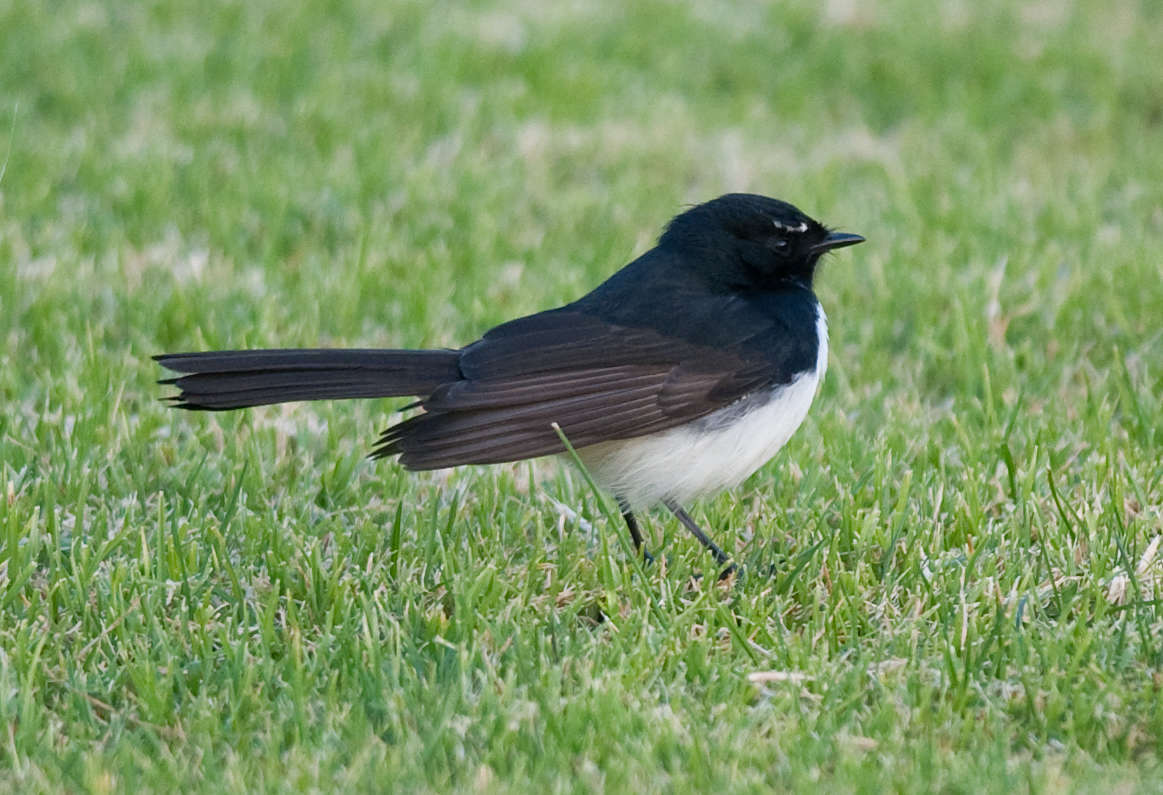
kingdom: Animalia
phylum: Chordata
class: Aves
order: Passeriformes
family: Rhipiduridae
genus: Rhipidura
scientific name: Rhipidura leucophrys
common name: Willie wagtail
